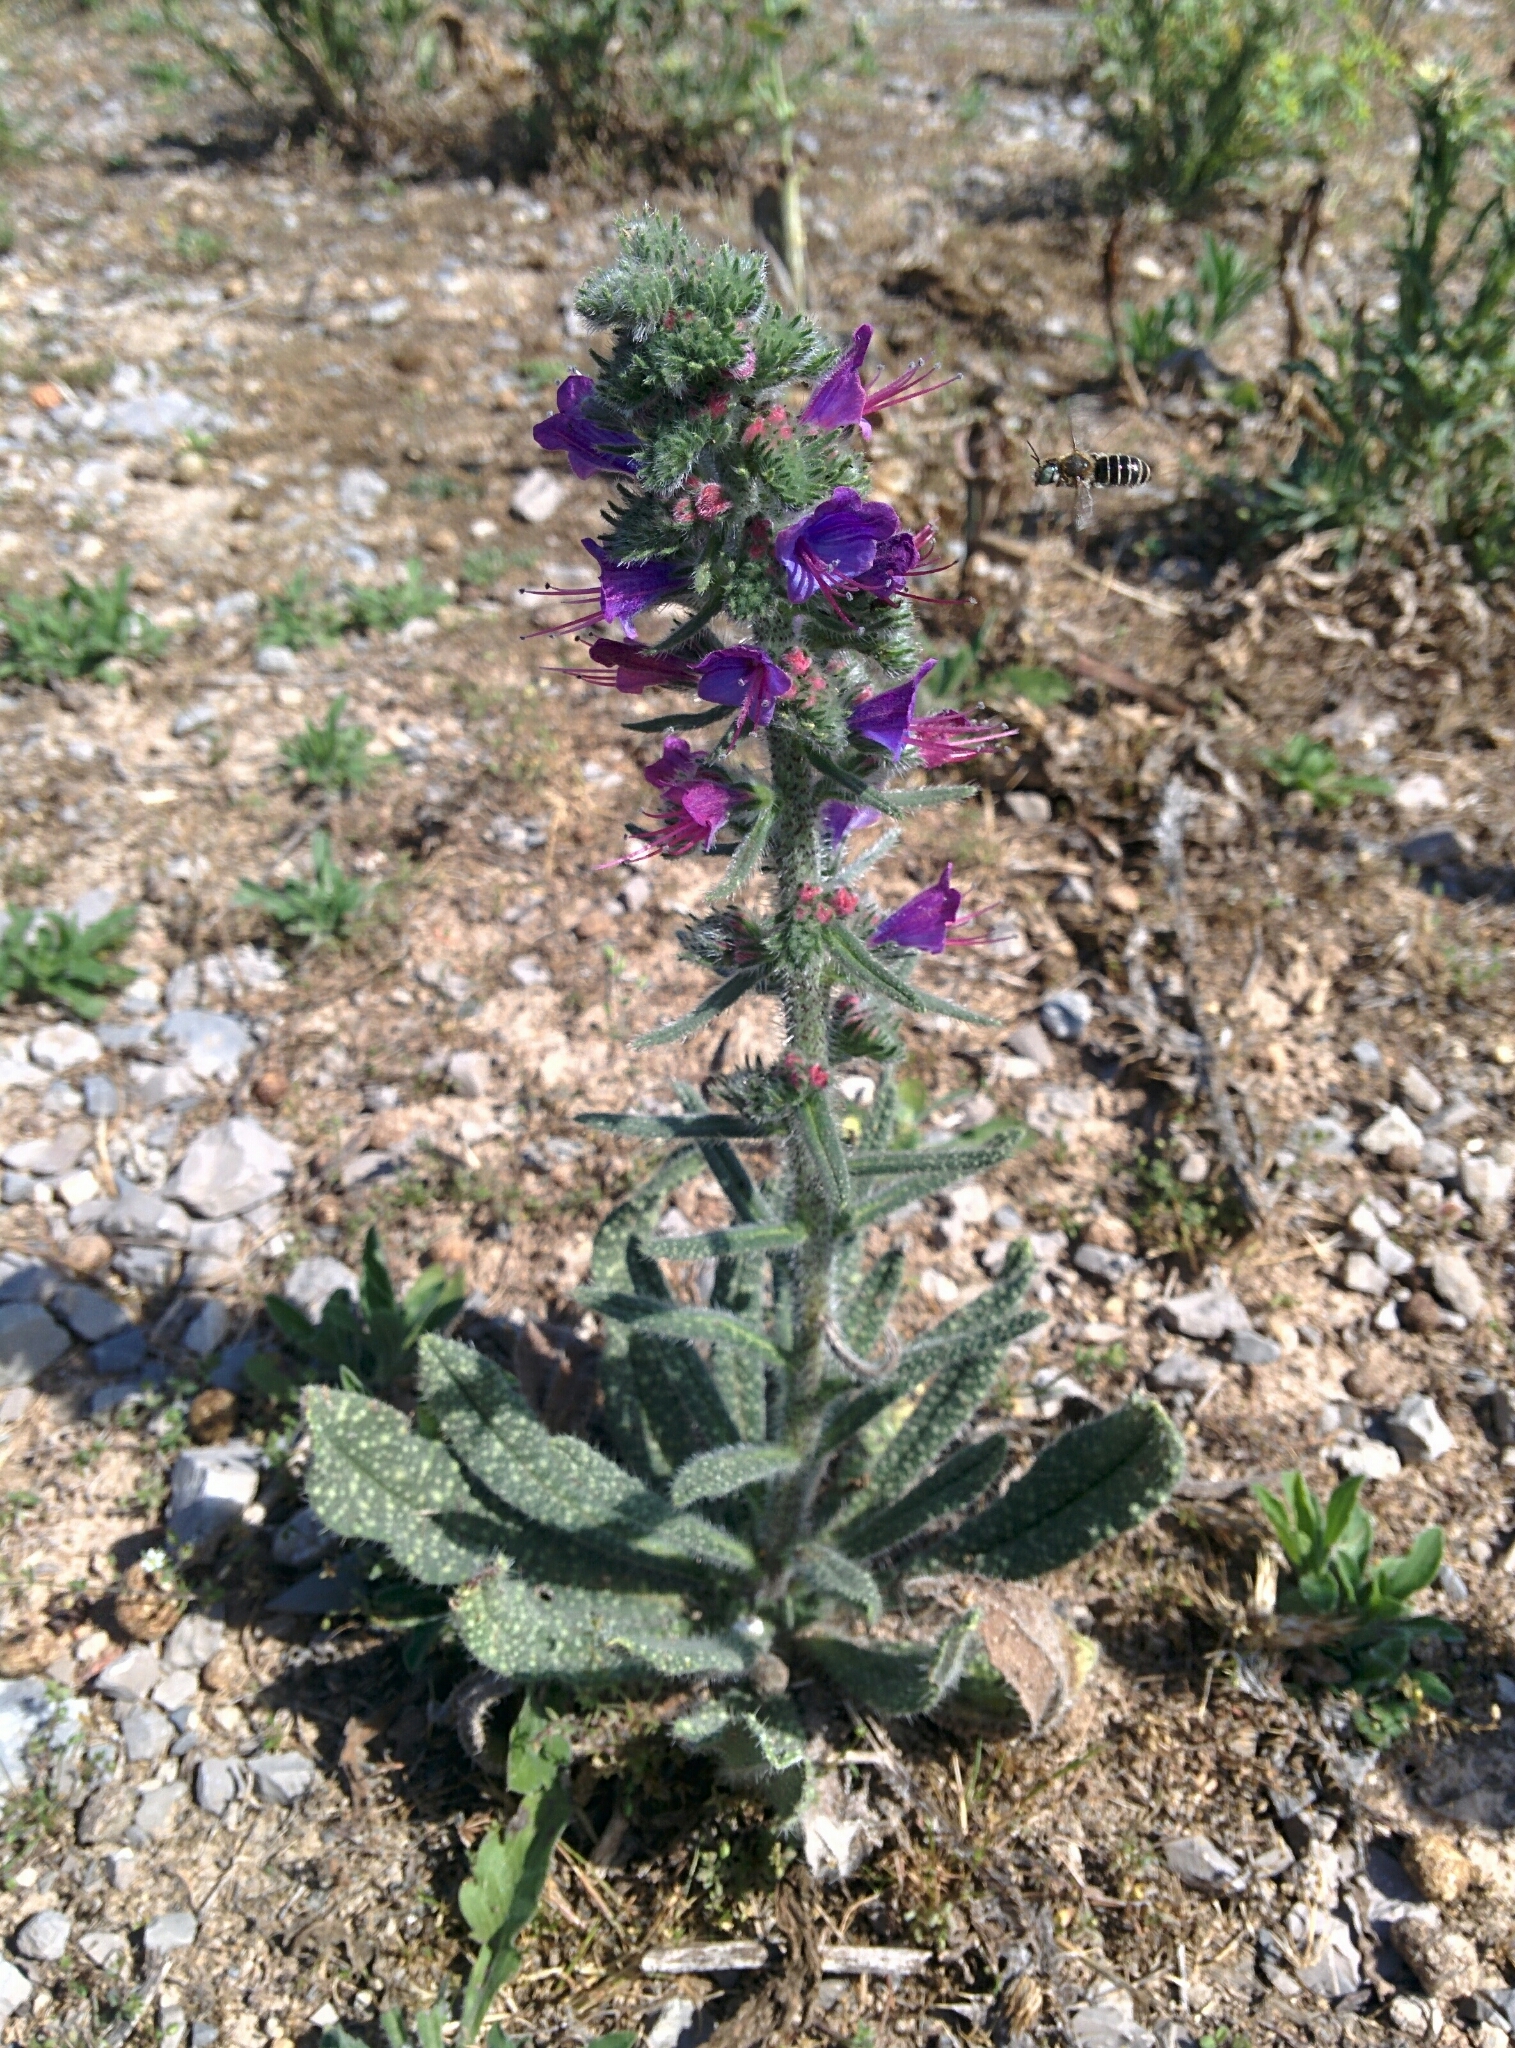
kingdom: Plantae
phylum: Tracheophyta
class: Magnoliopsida
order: Boraginales
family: Boraginaceae
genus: Echium
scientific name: Echium vulgare
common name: Common viper's bugloss
